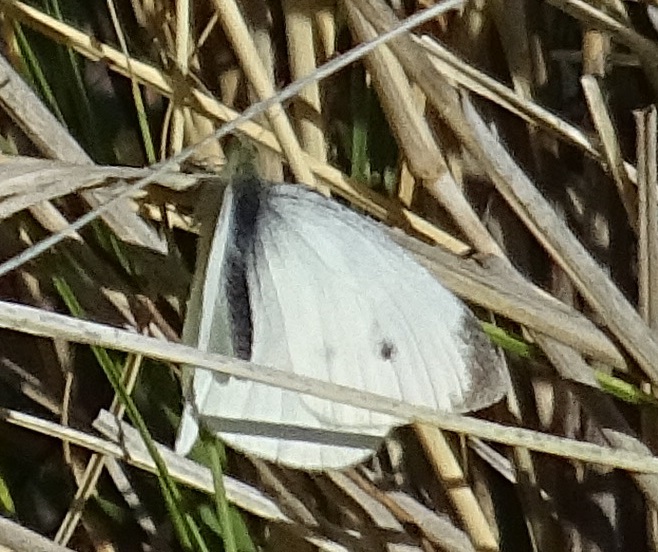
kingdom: Animalia
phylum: Arthropoda
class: Insecta
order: Lepidoptera
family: Pieridae
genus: Pieris
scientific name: Pieris rapae
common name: Small white
